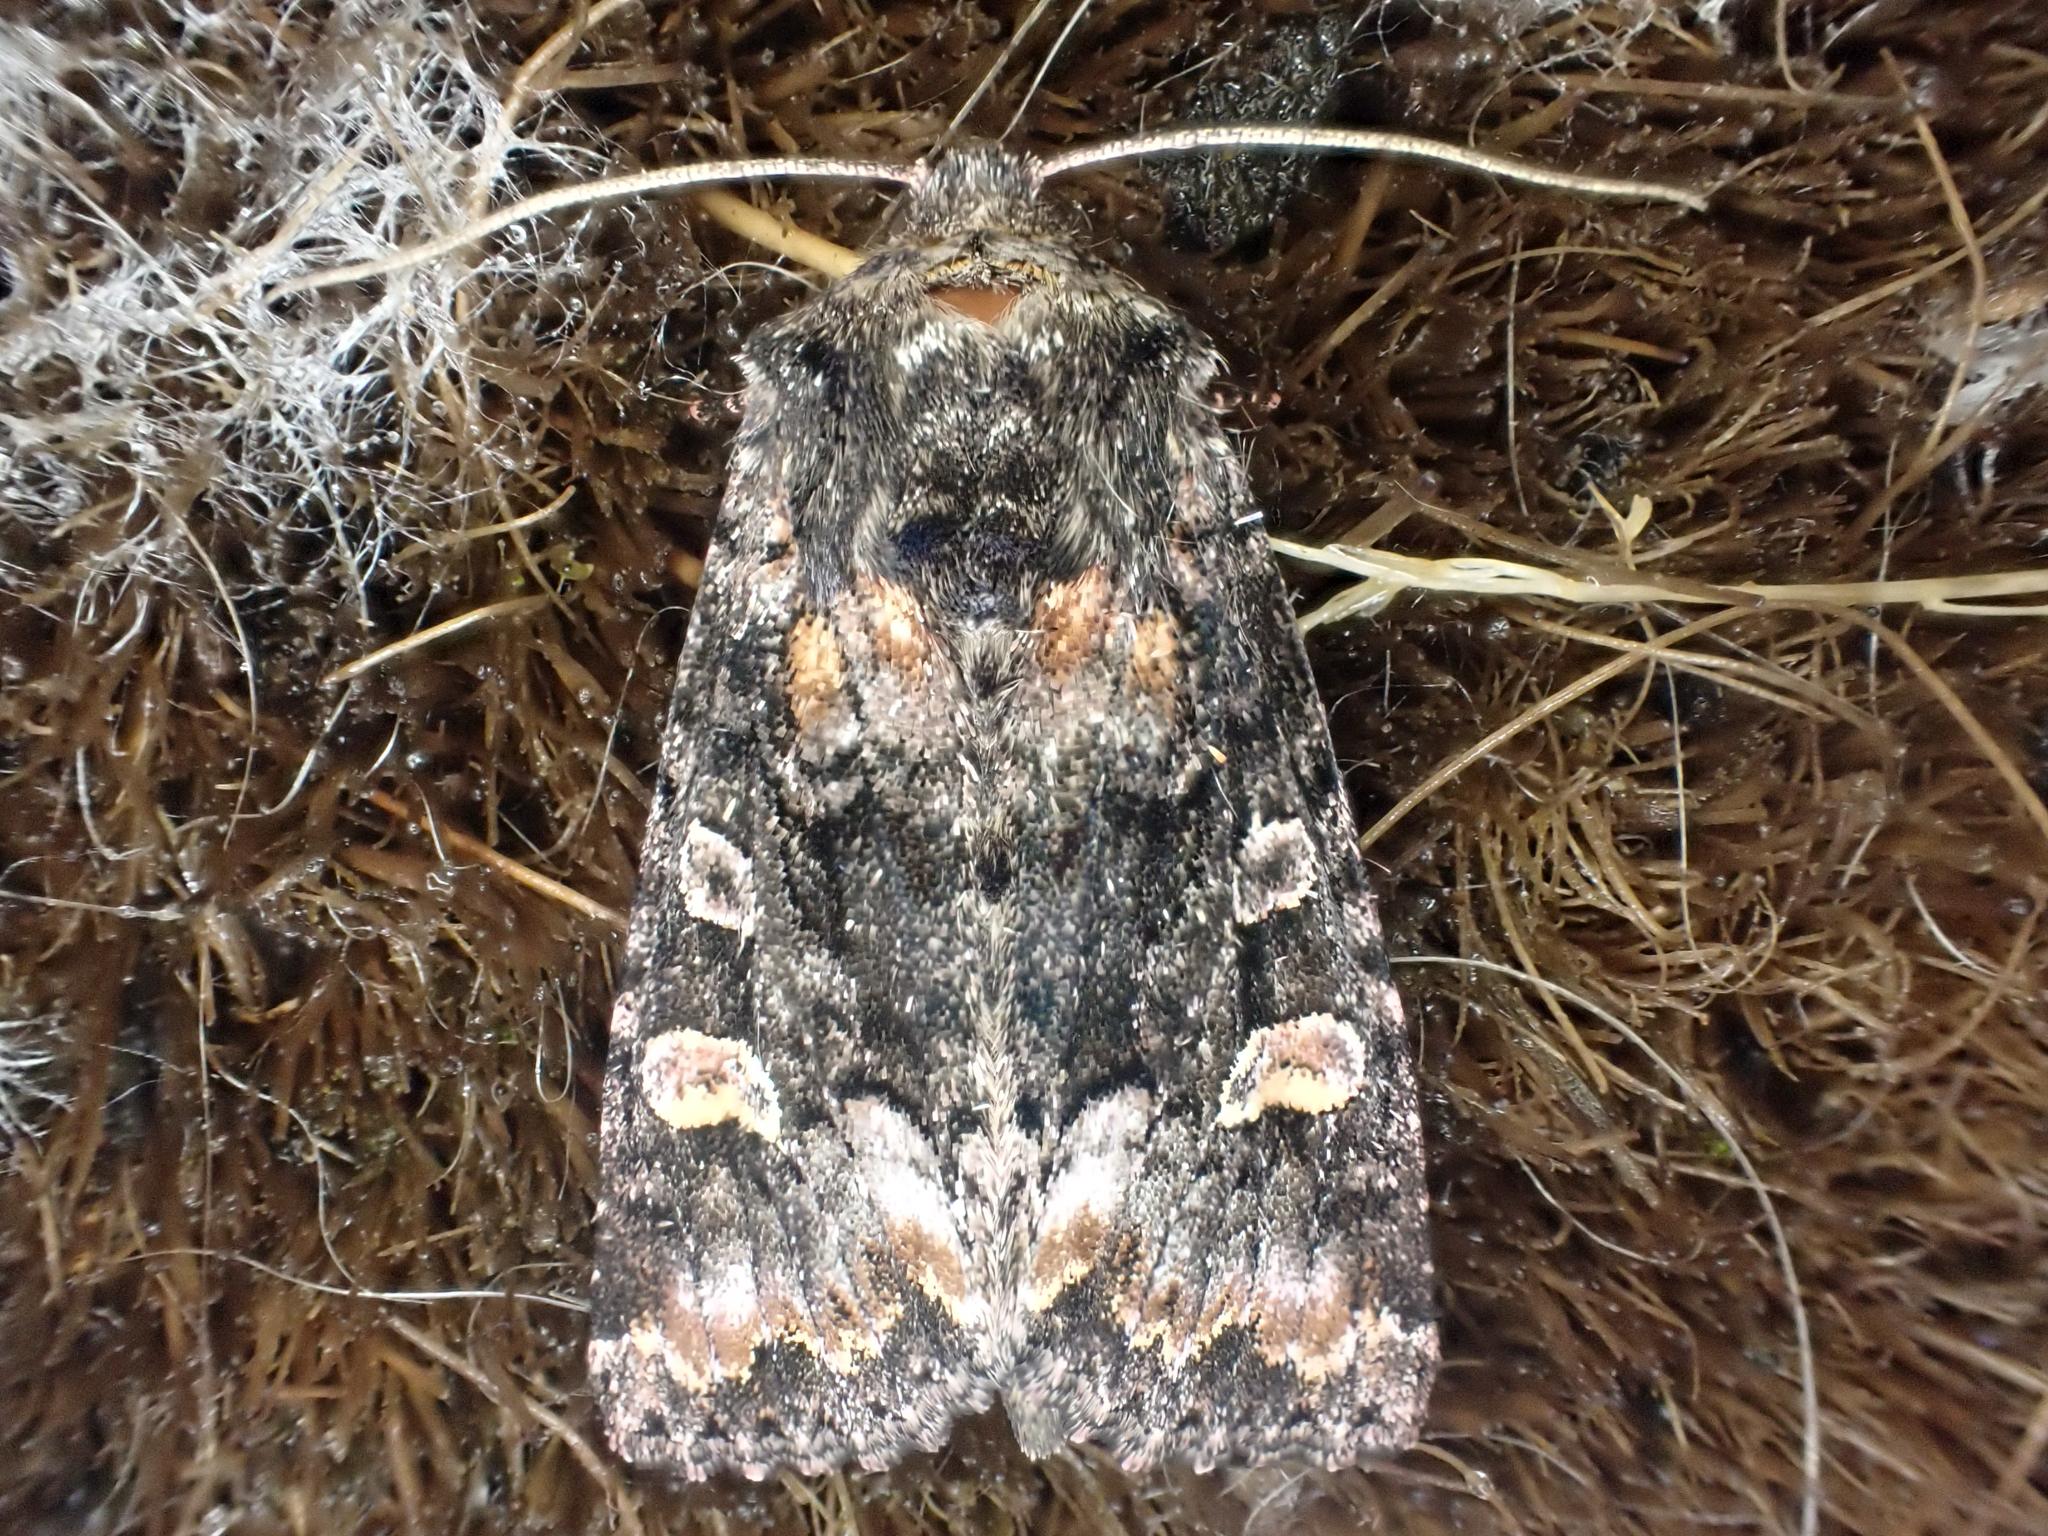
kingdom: Animalia
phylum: Arthropoda
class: Insecta
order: Lepidoptera
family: Noctuidae
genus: Spiramater
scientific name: Spiramater lutra
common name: Otter spiramater moth
